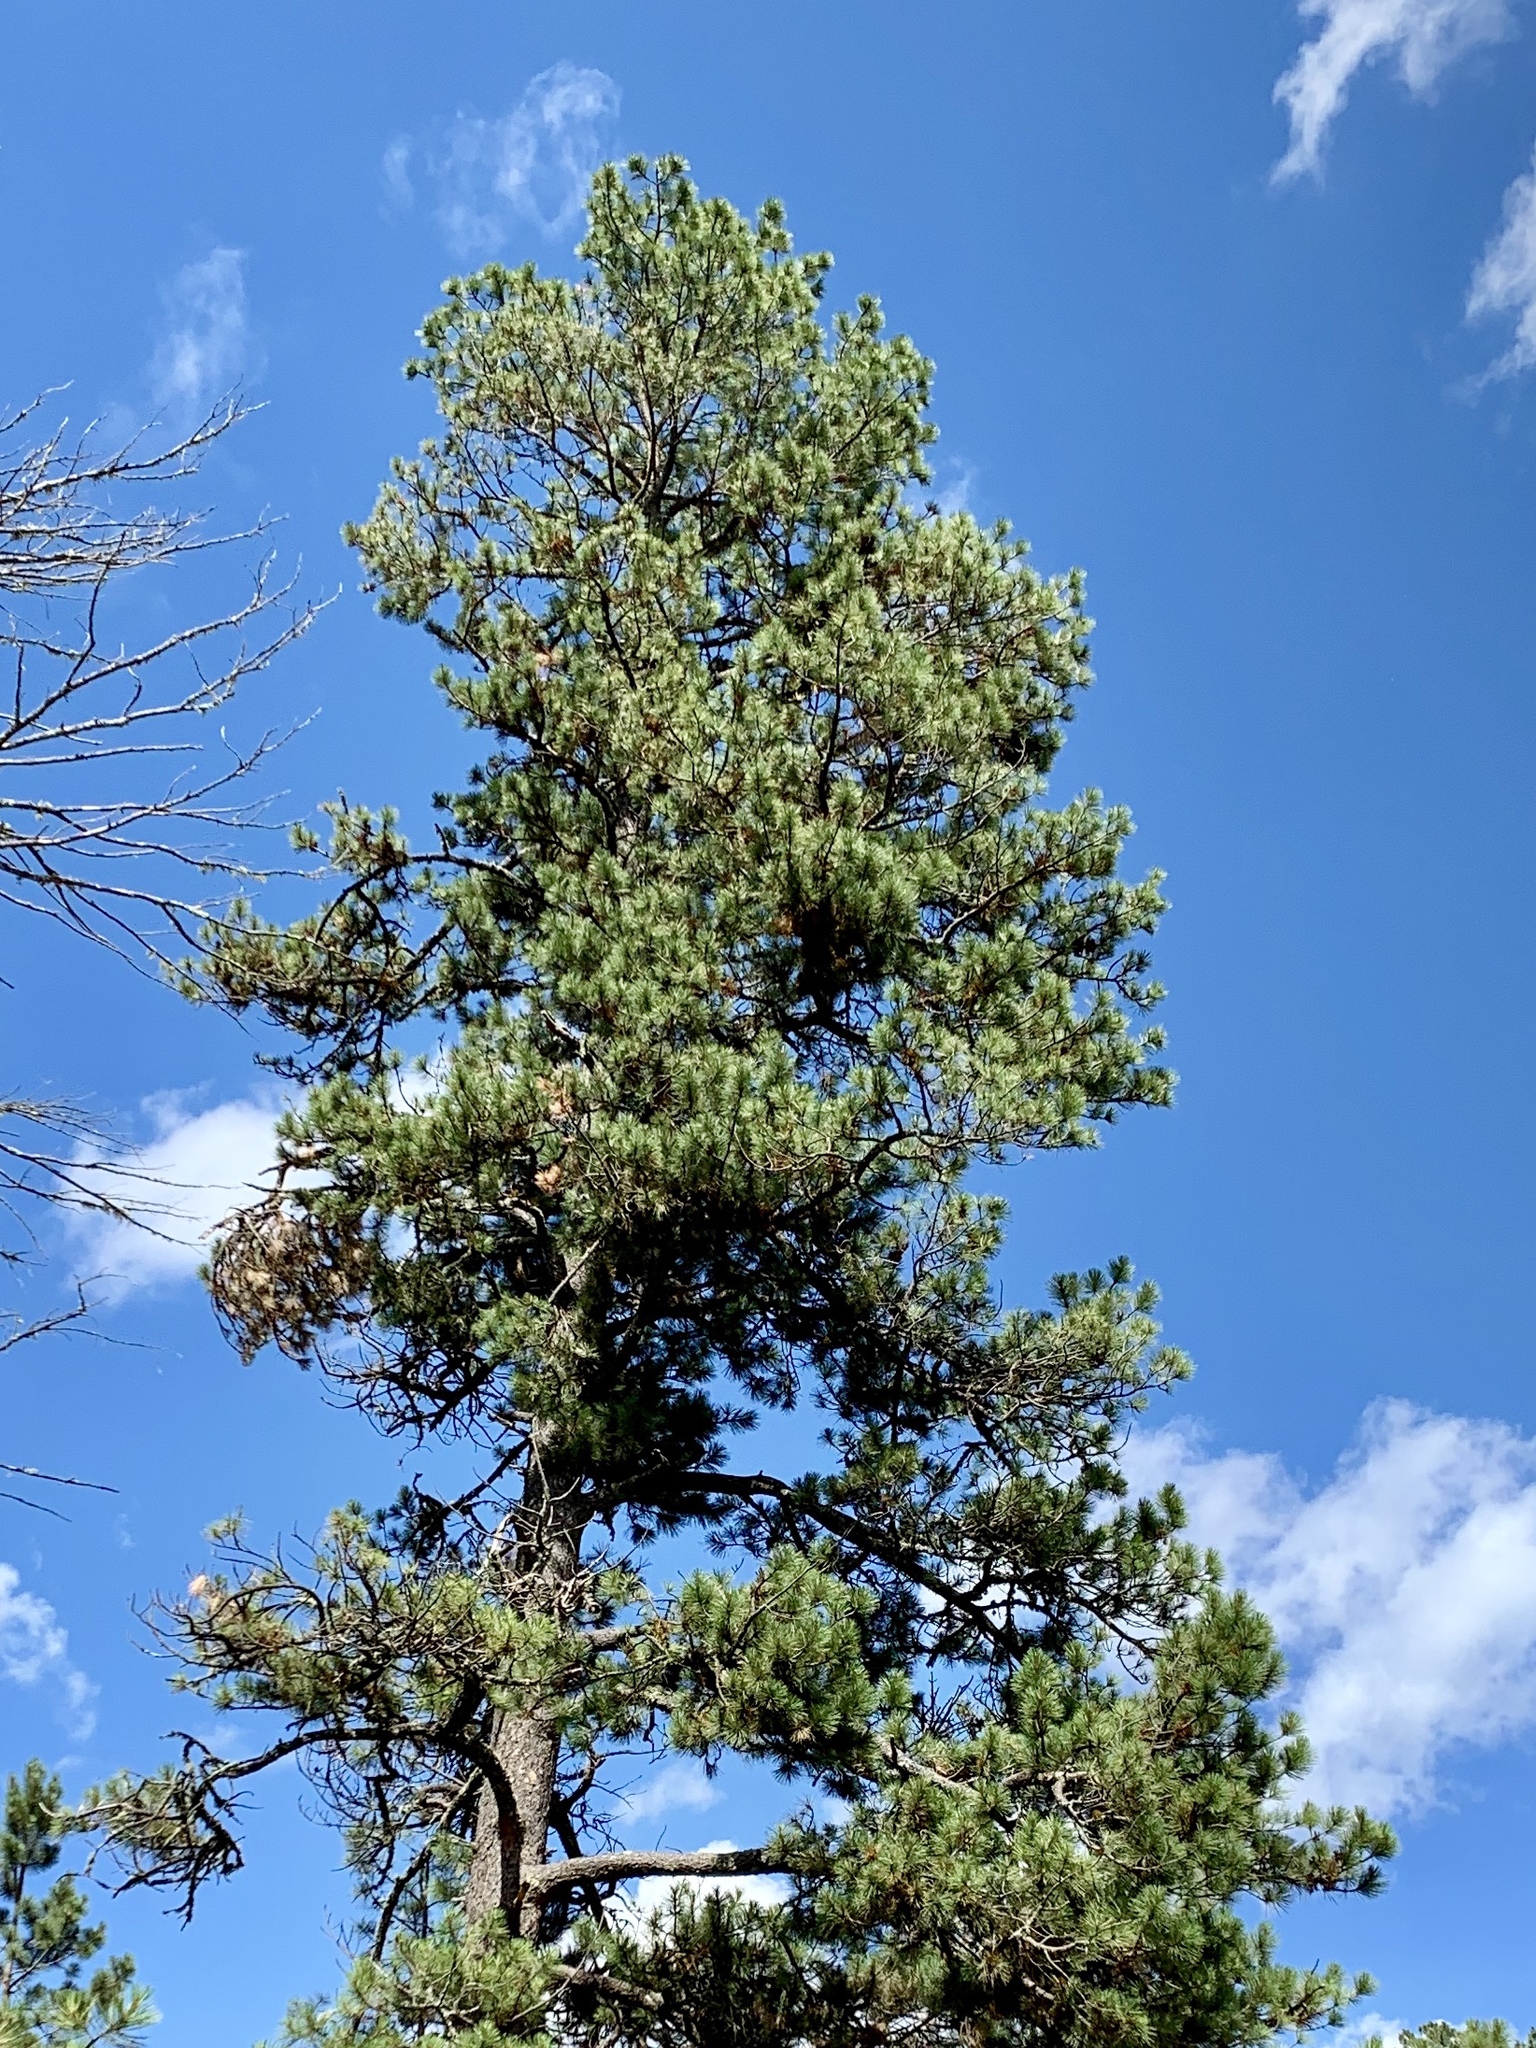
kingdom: Plantae
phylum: Tracheophyta
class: Pinopsida
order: Pinales
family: Pinaceae
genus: Pinus
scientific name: Pinus ponderosa
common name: Western yellow-pine
